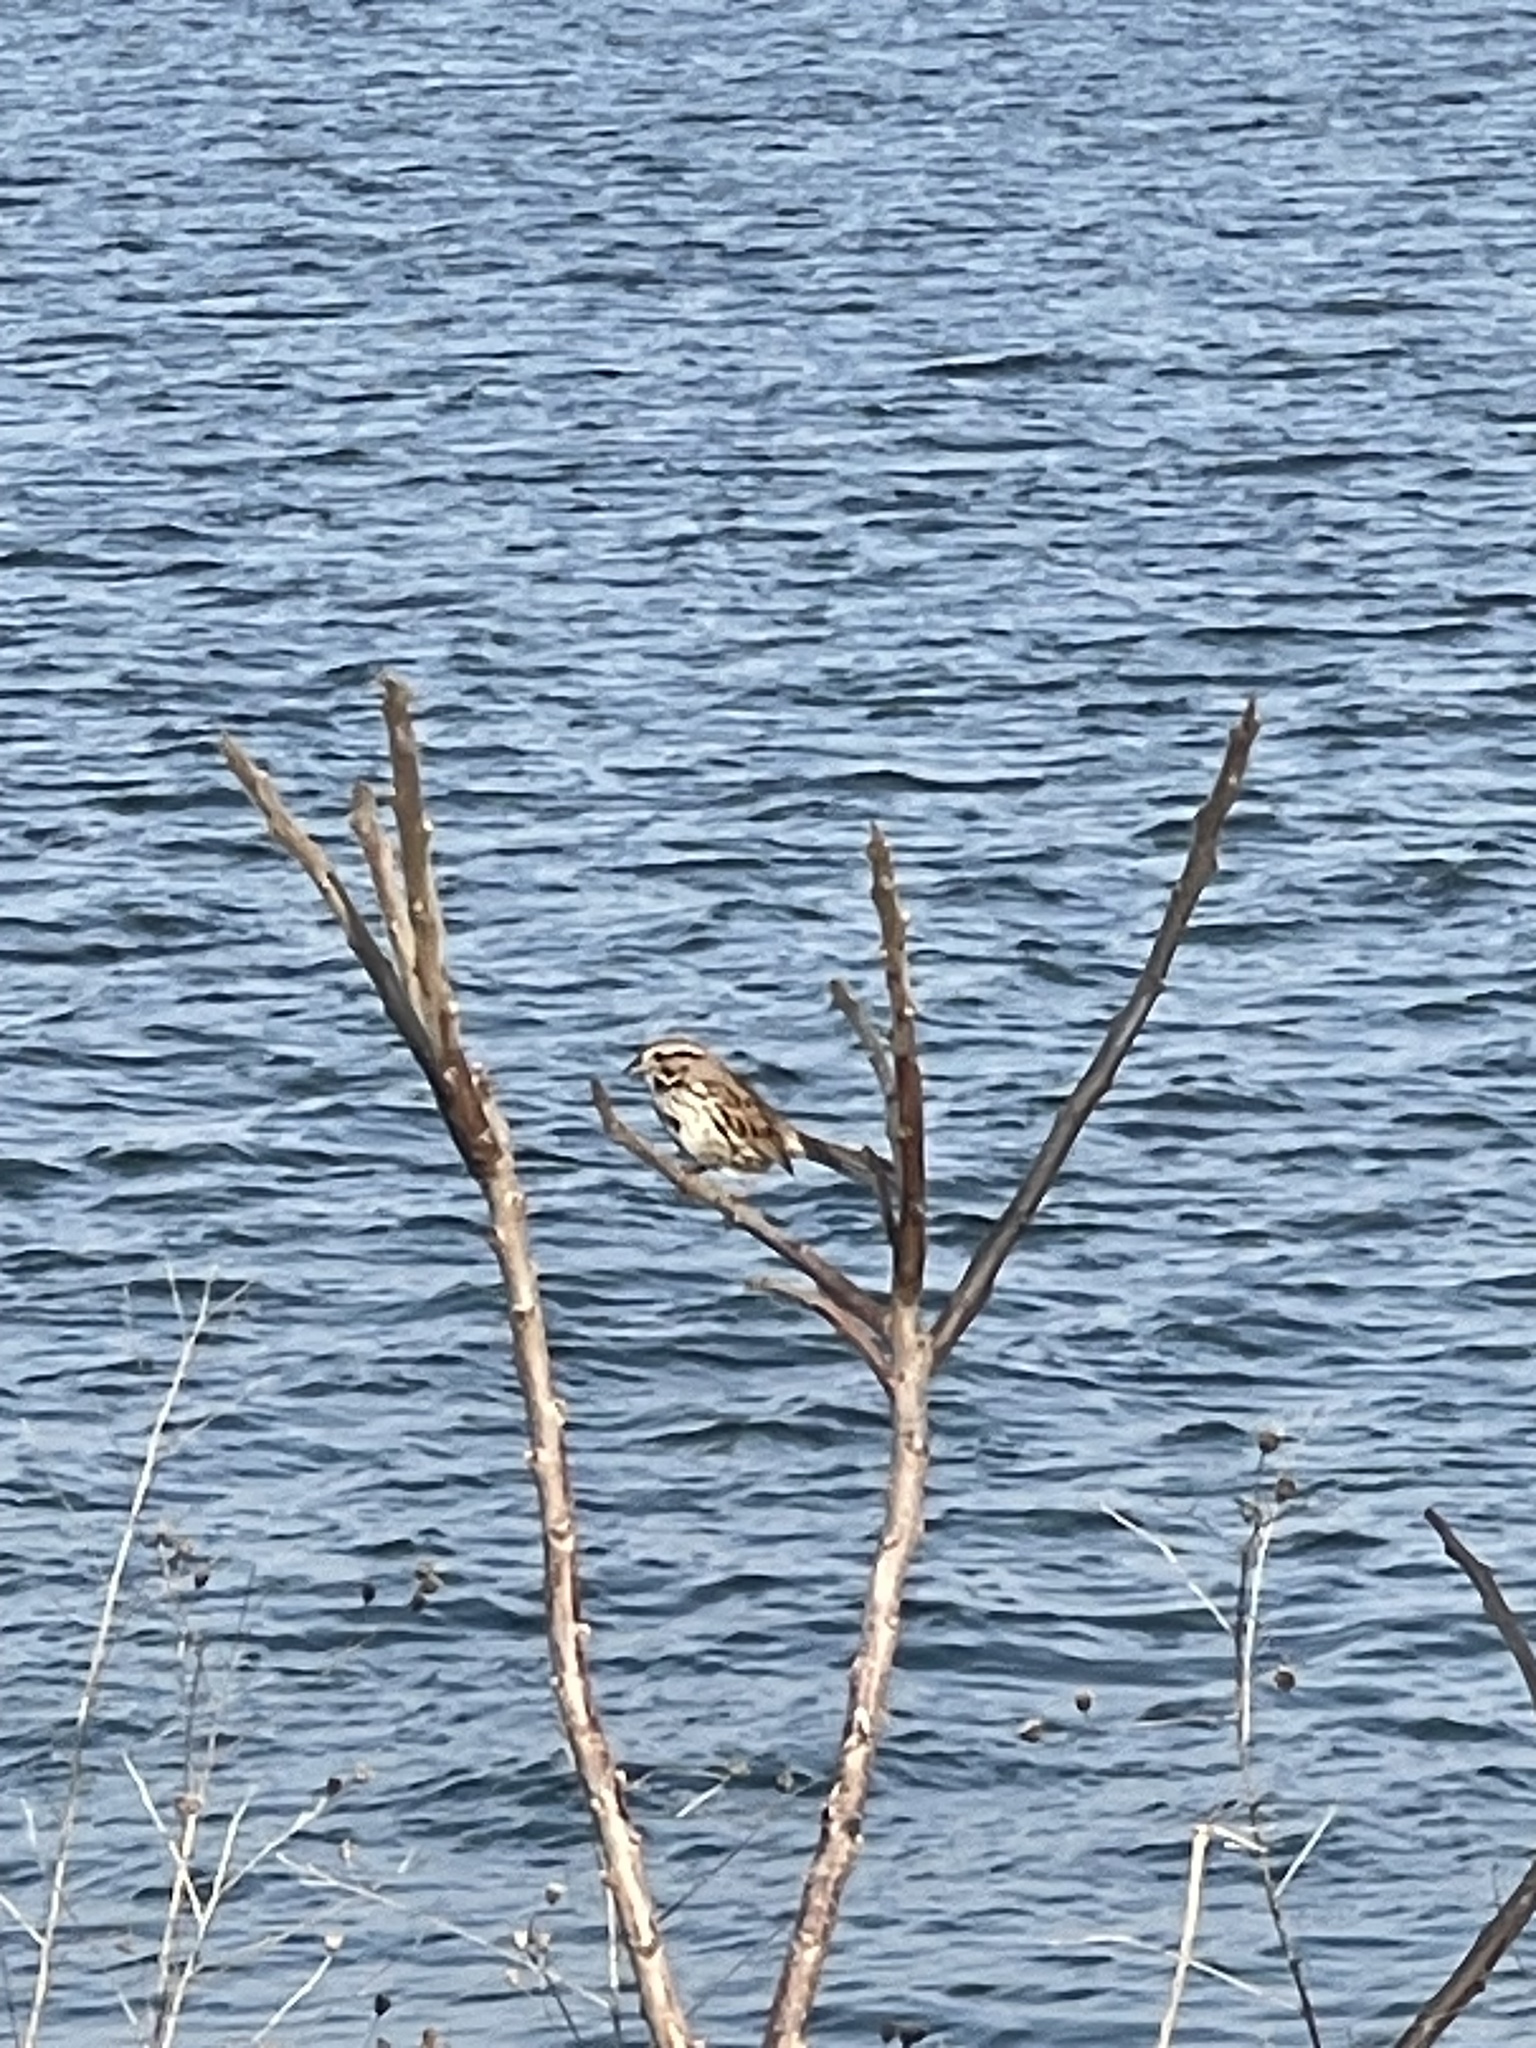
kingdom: Animalia
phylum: Chordata
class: Aves
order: Passeriformes
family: Passerellidae
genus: Melospiza
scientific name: Melospiza melodia
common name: Song sparrow
